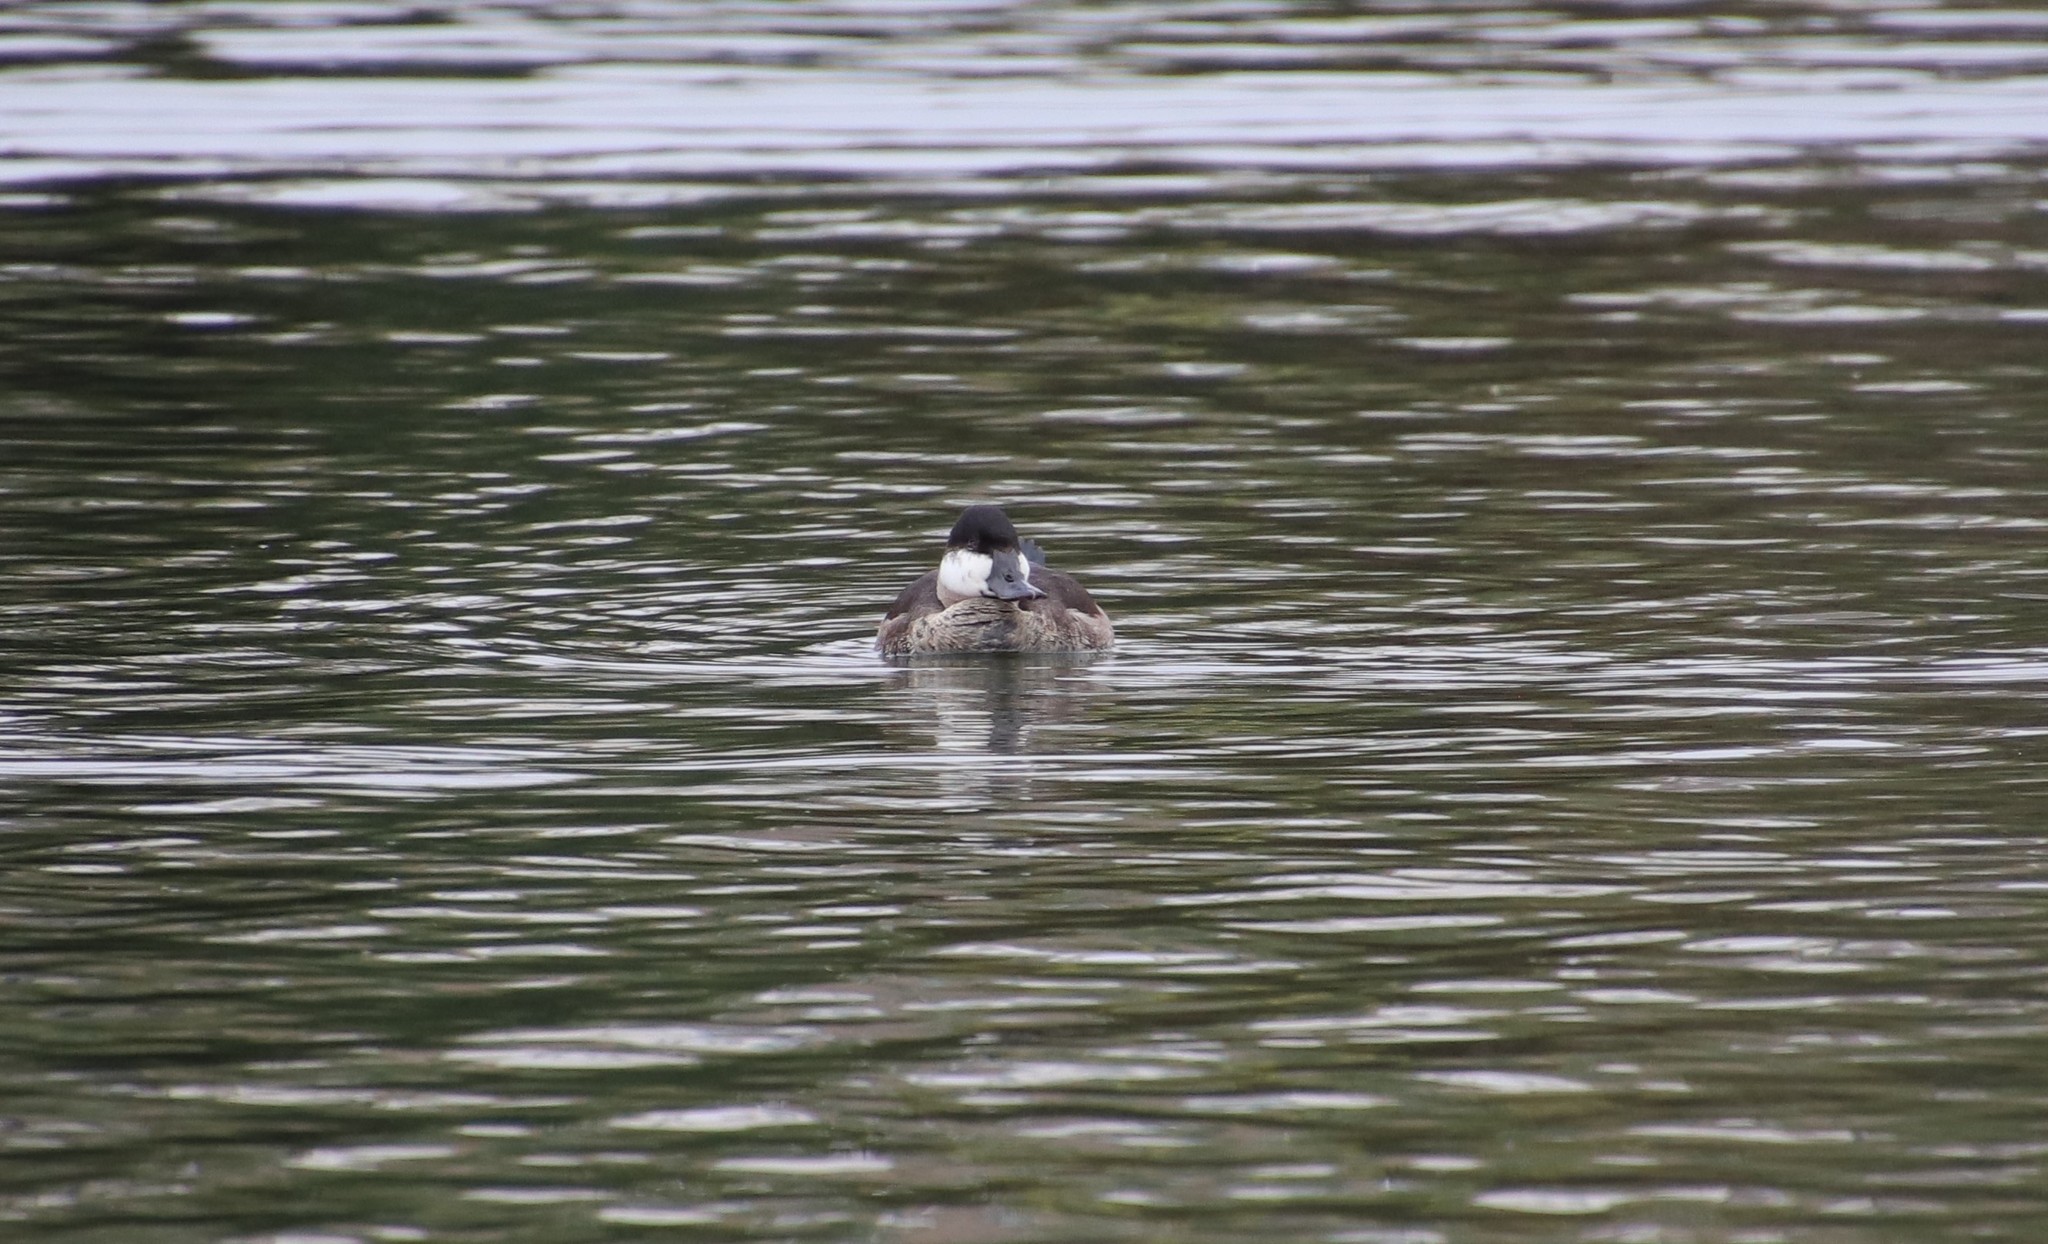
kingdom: Animalia
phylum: Chordata
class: Aves
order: Anseriformes
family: Anatidae
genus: Oxyura
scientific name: Oxyura jamaicensis
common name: Ruddy duck
